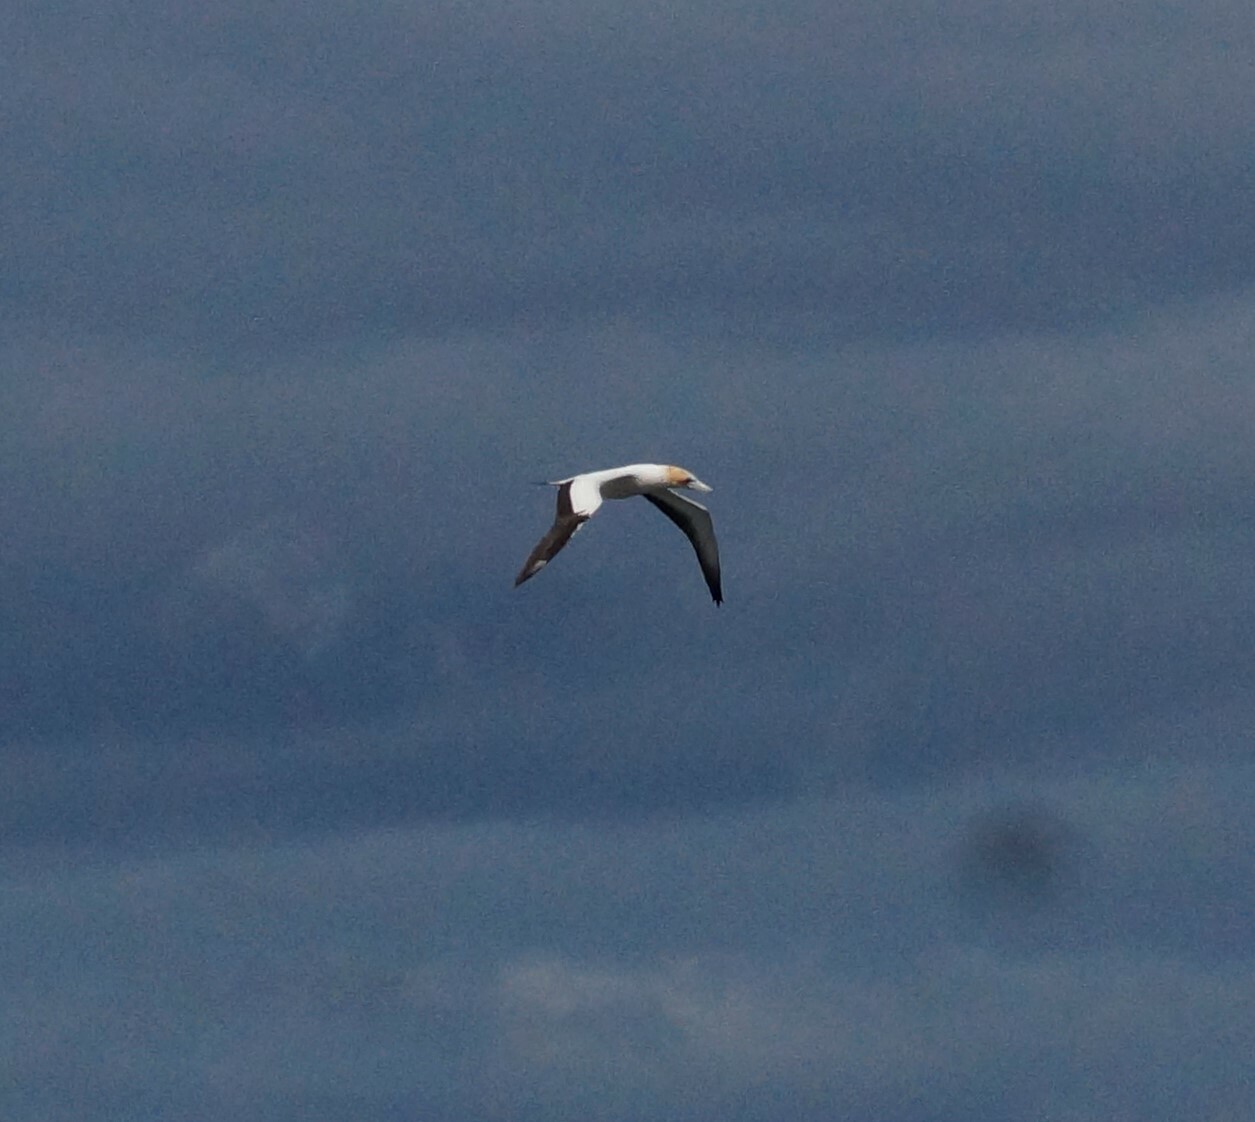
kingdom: Animalia
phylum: Chordata
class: Aves
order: Suliformes
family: Sulidae
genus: Morus
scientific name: Morus serrator
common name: Australasian gannet
